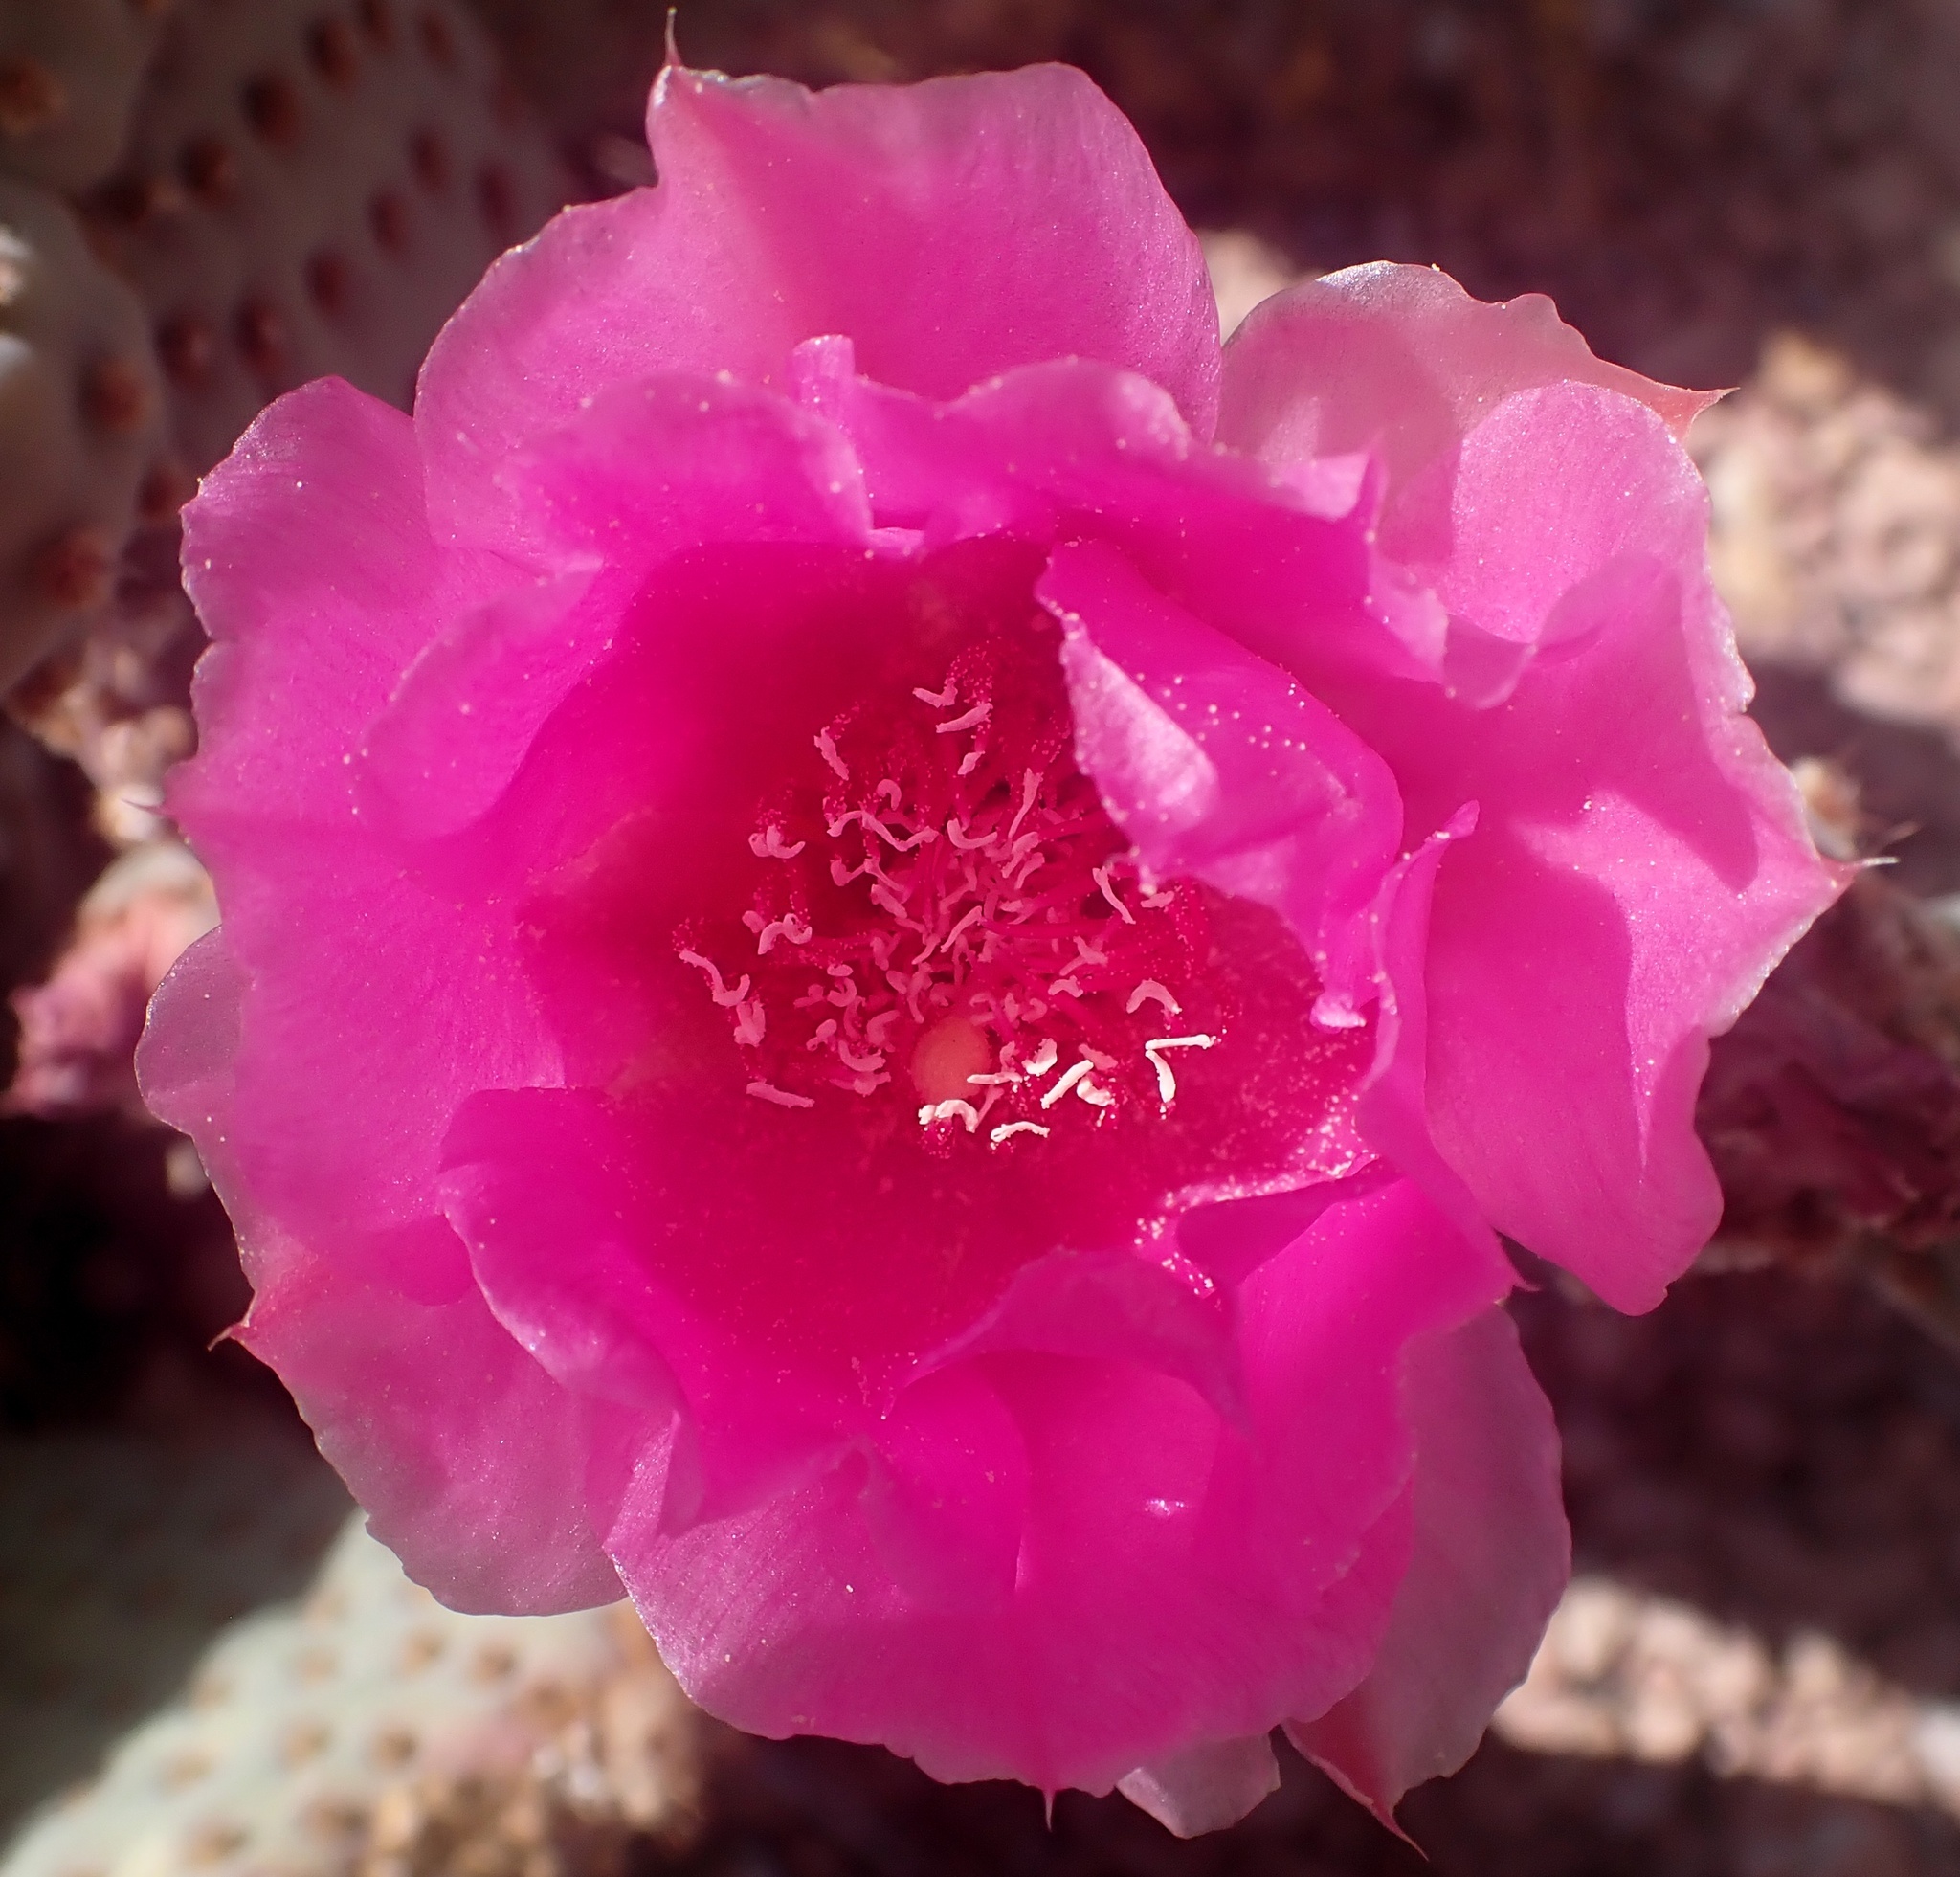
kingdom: Plantae
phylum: Tracheophyta
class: Magnoliopsida
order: Caryophyllales
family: Cactaceae
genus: Opuntia
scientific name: Opuntia basilaris
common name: Beavertail prickly-pear
